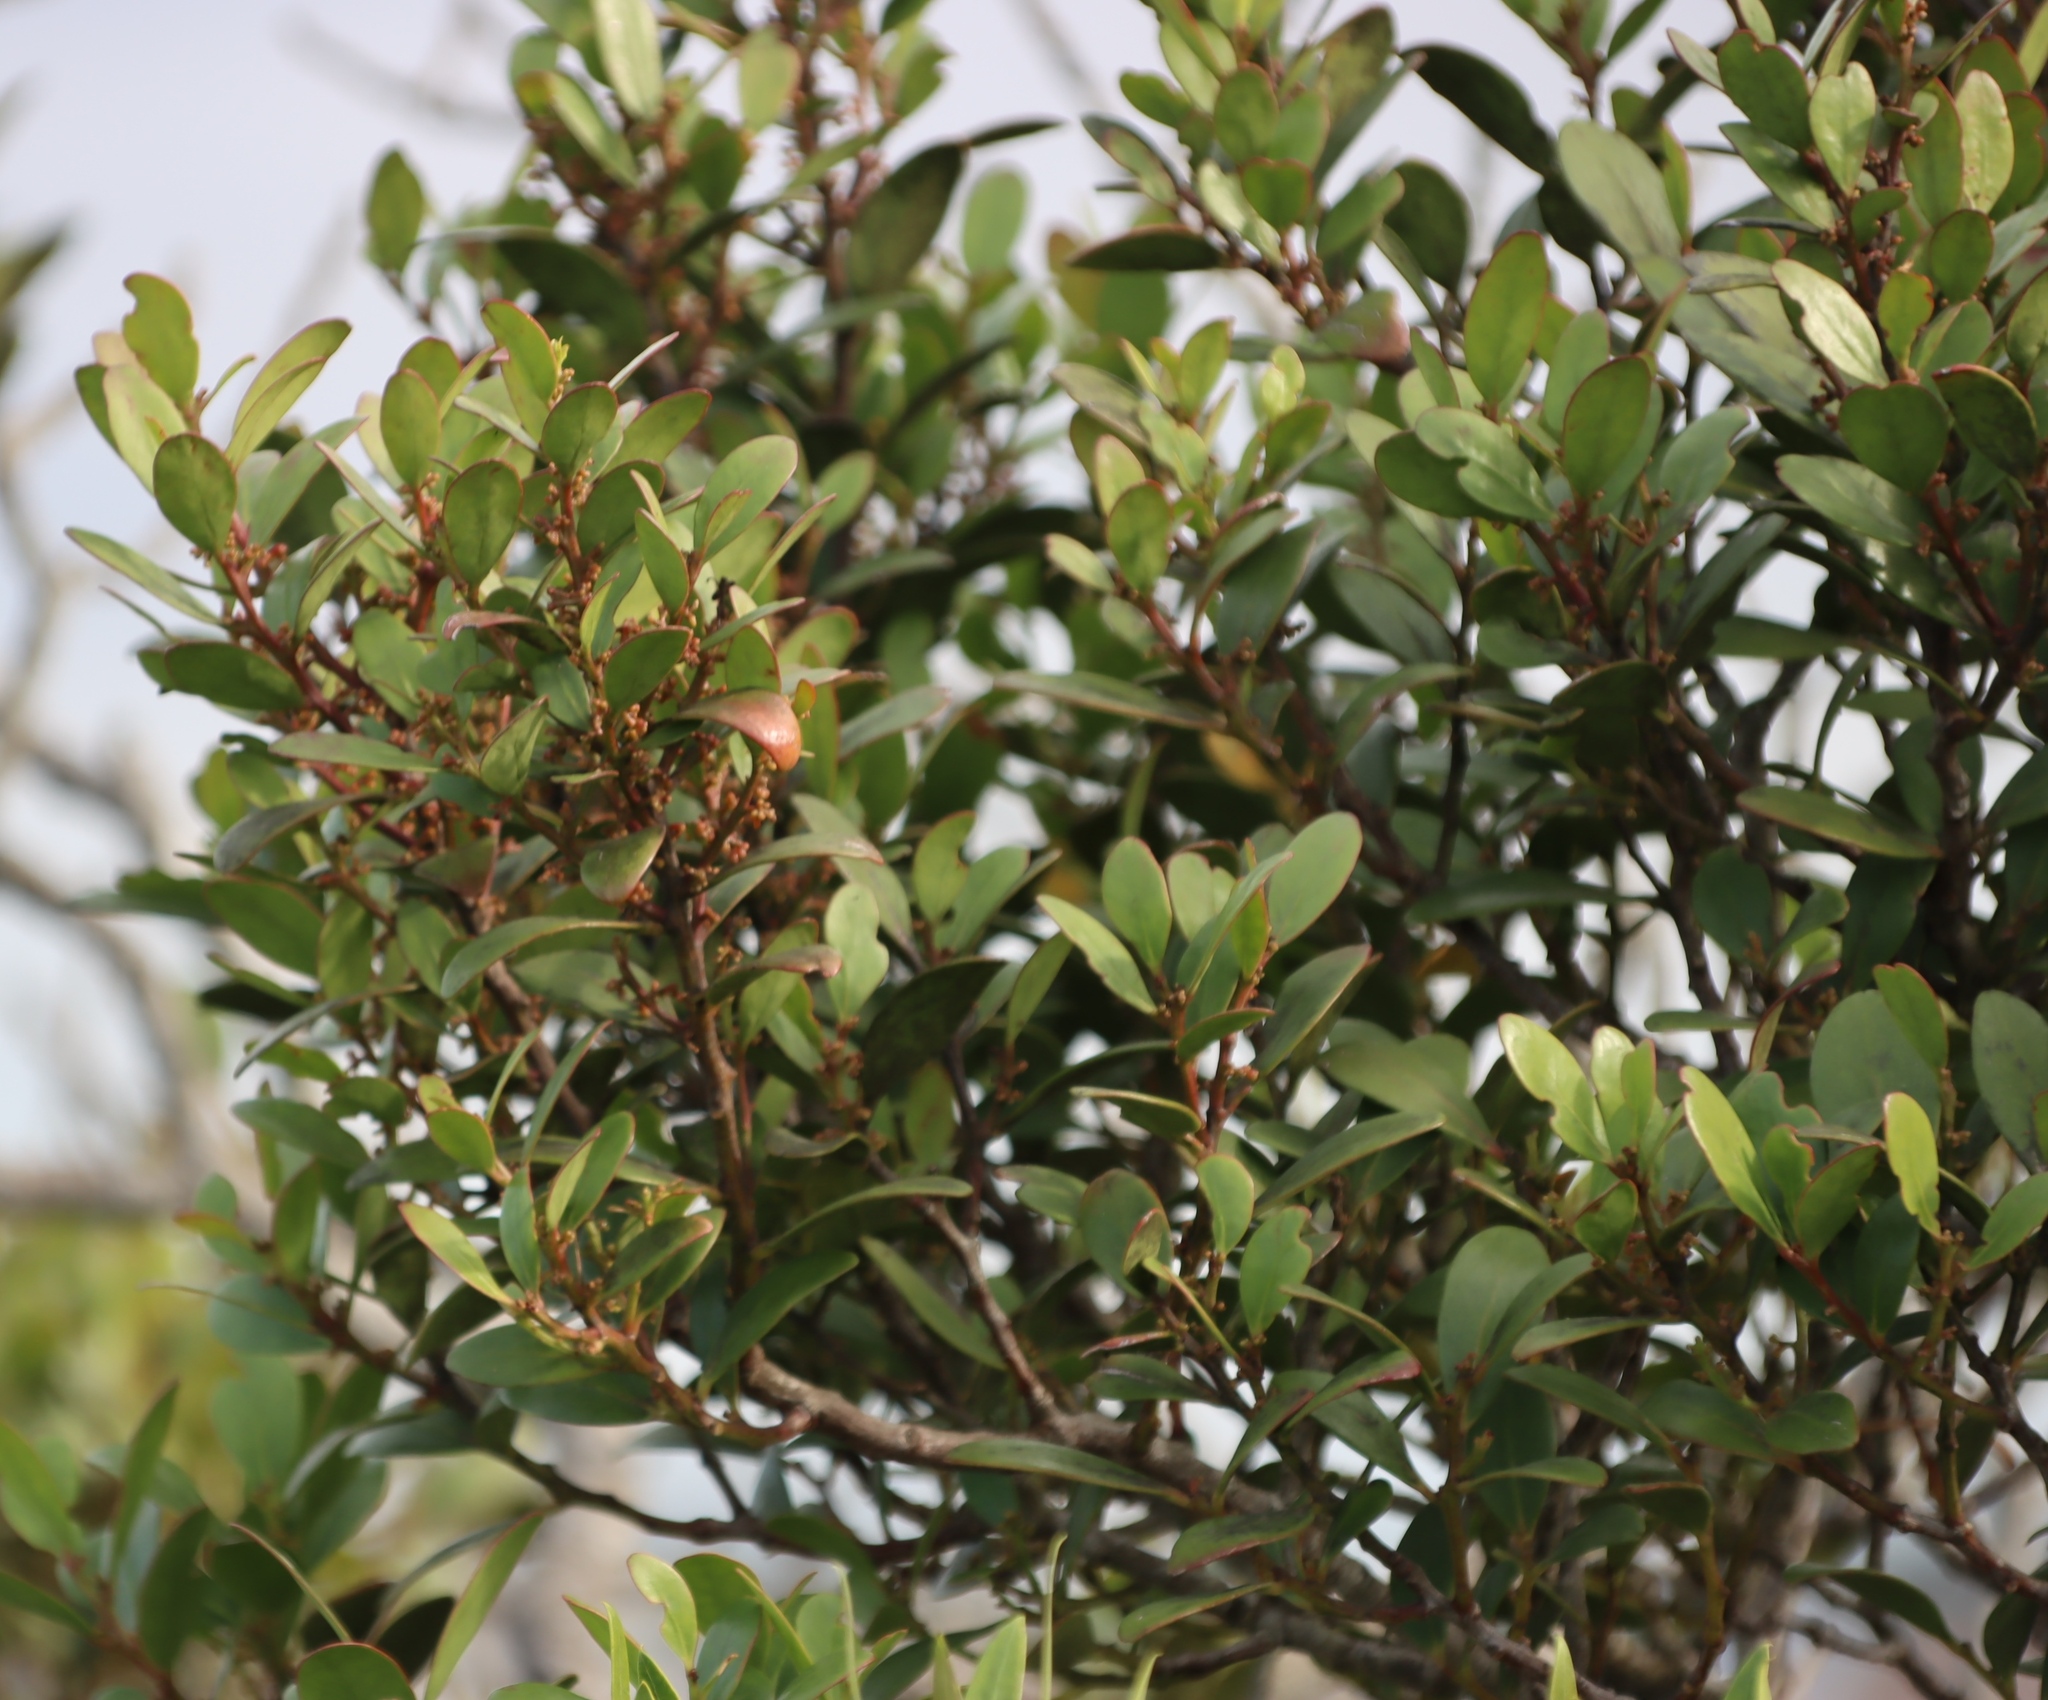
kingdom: Plantae
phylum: Tracheophyta
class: Magnoliopsida
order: Celastrales
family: Celastraceae
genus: Pterocelastrus
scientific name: Pterocelastrus tricuspidatus
